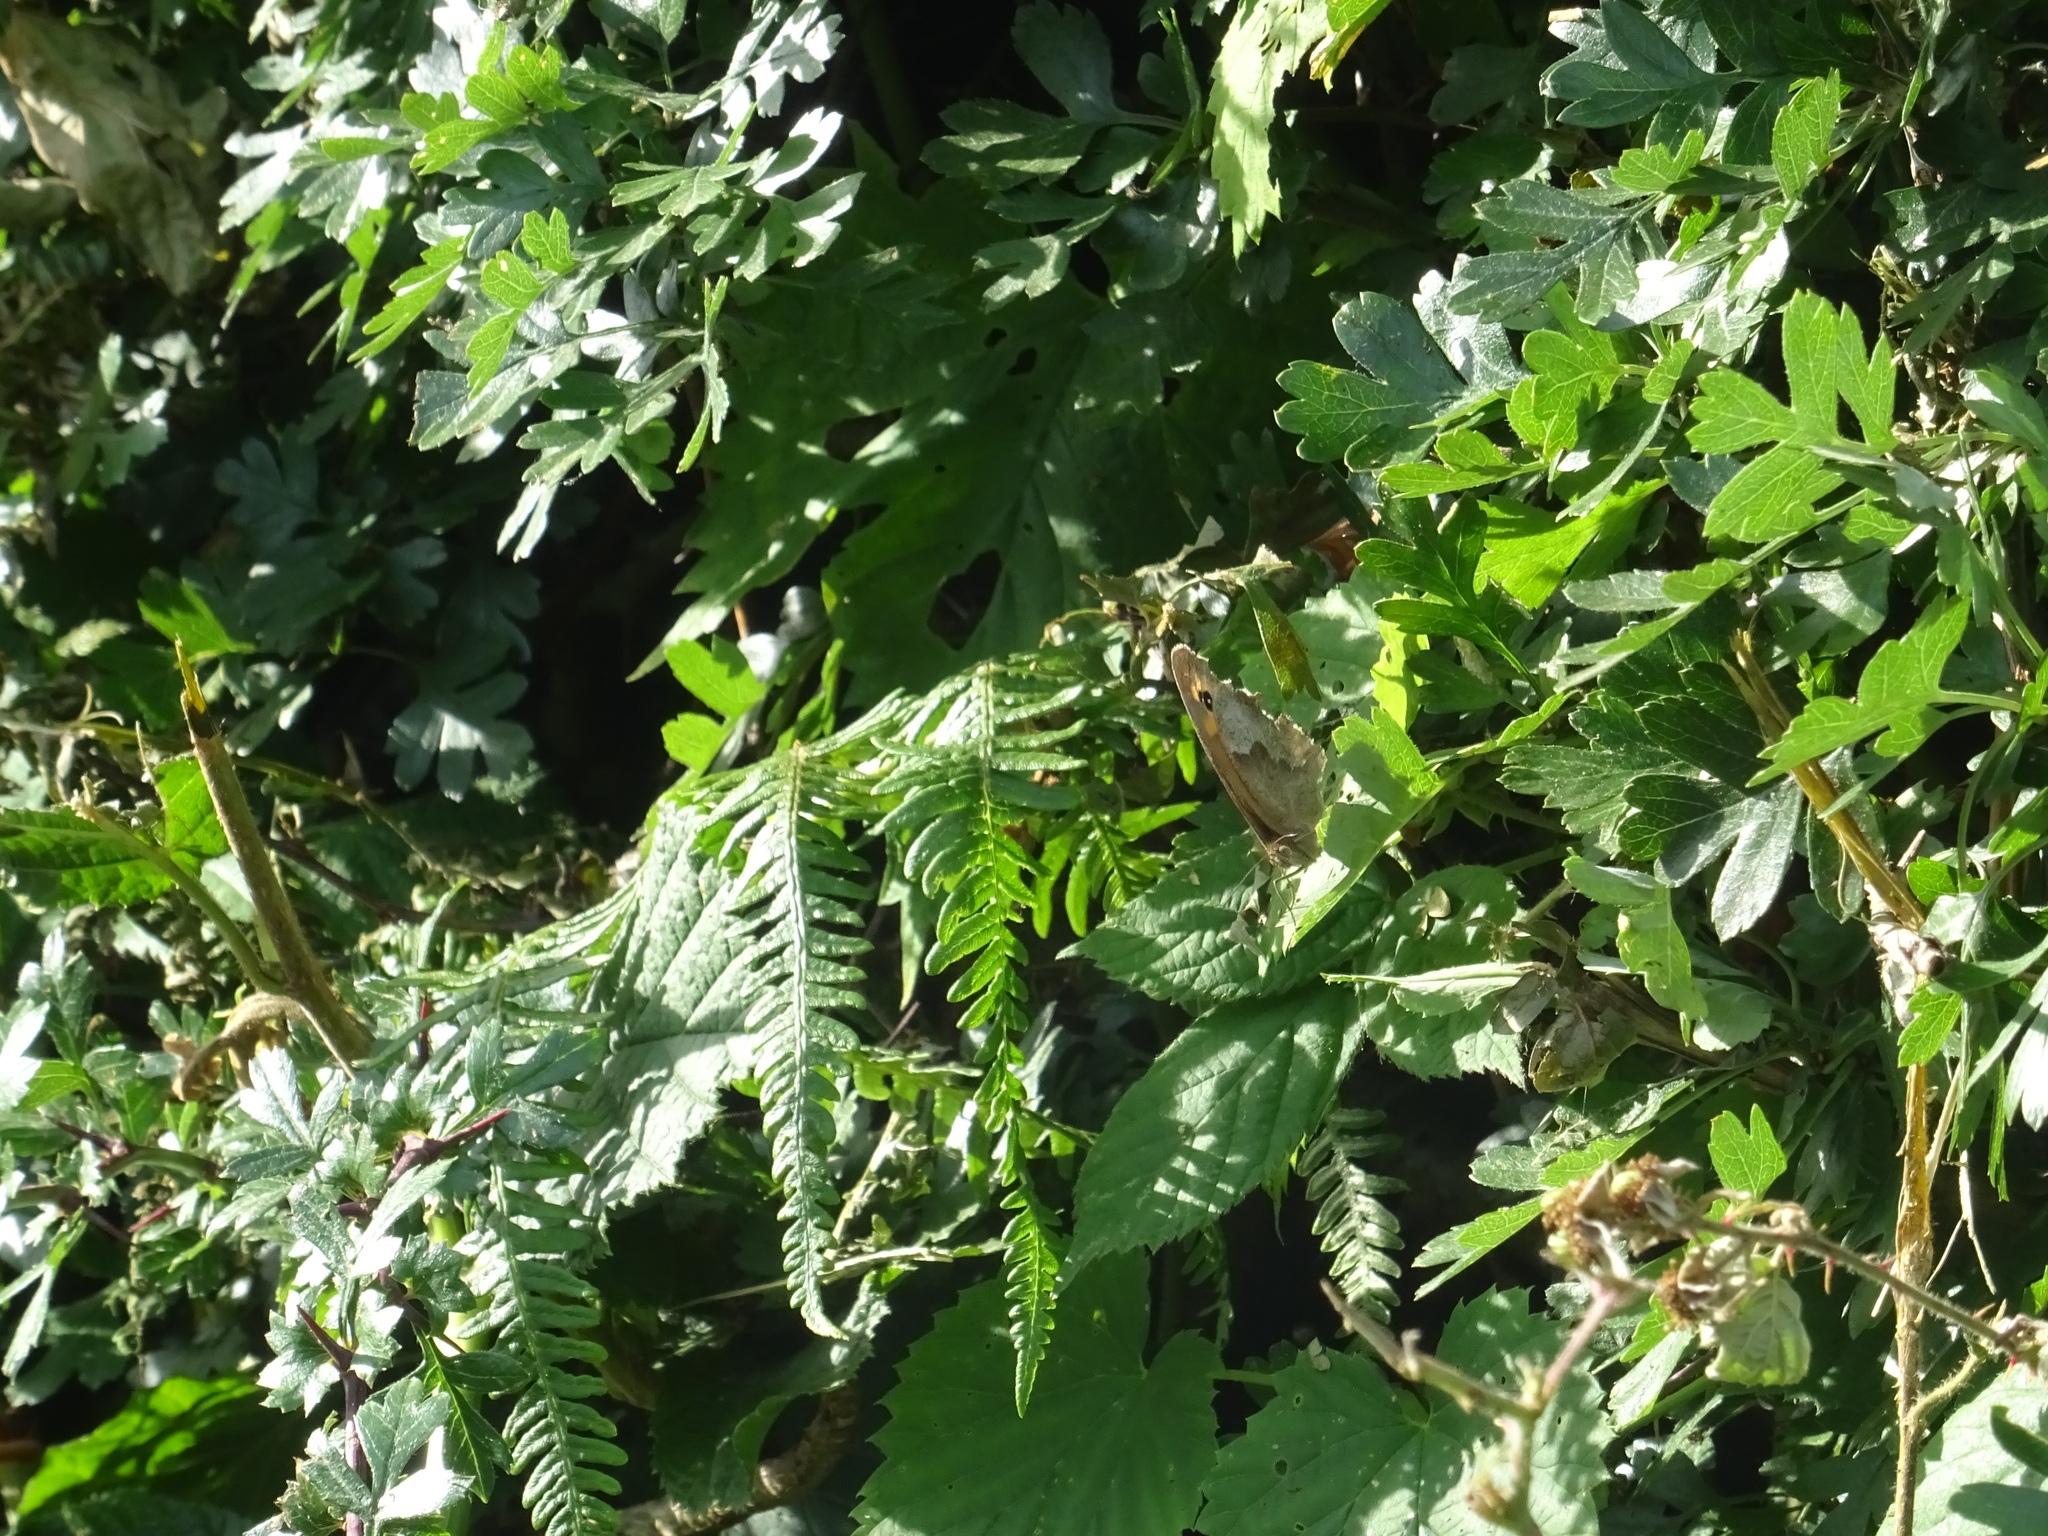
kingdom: Animalia
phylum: Arthropoda
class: Insecta
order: Lepidoptera
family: Nymphalidae
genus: Maniola
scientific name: Maniola jurtina
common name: Meadow brown
